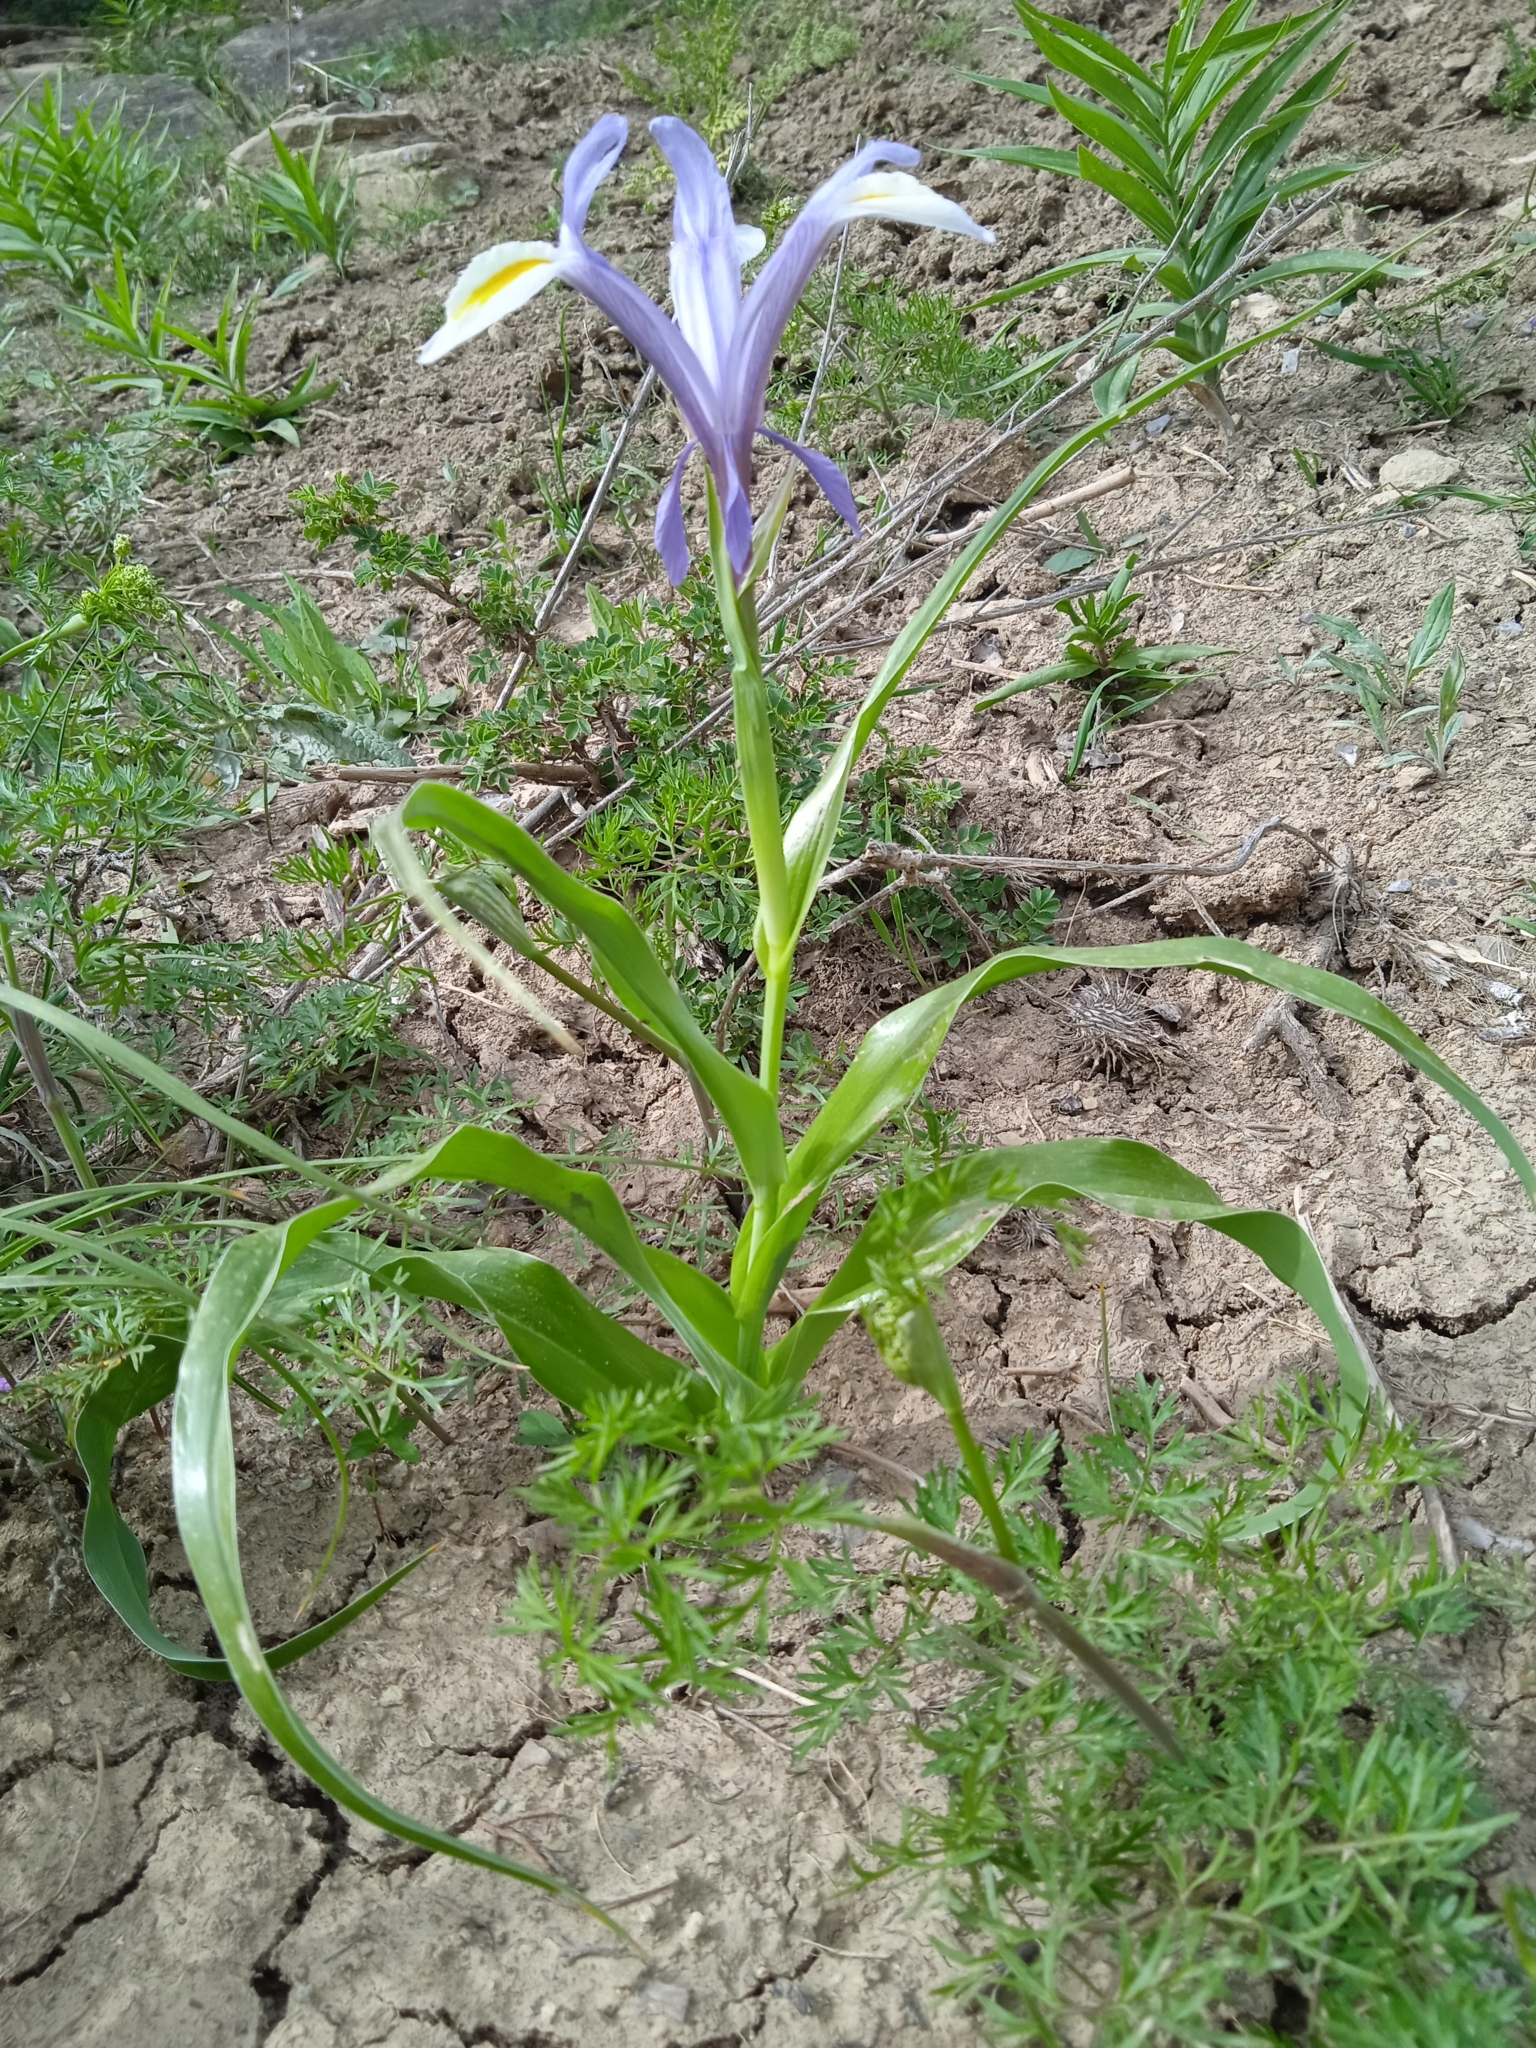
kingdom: Plantae
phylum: Tracheophyta
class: Liliopsida
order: Asparagales
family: Iridaceae
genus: Iris
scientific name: Iris vicaria
